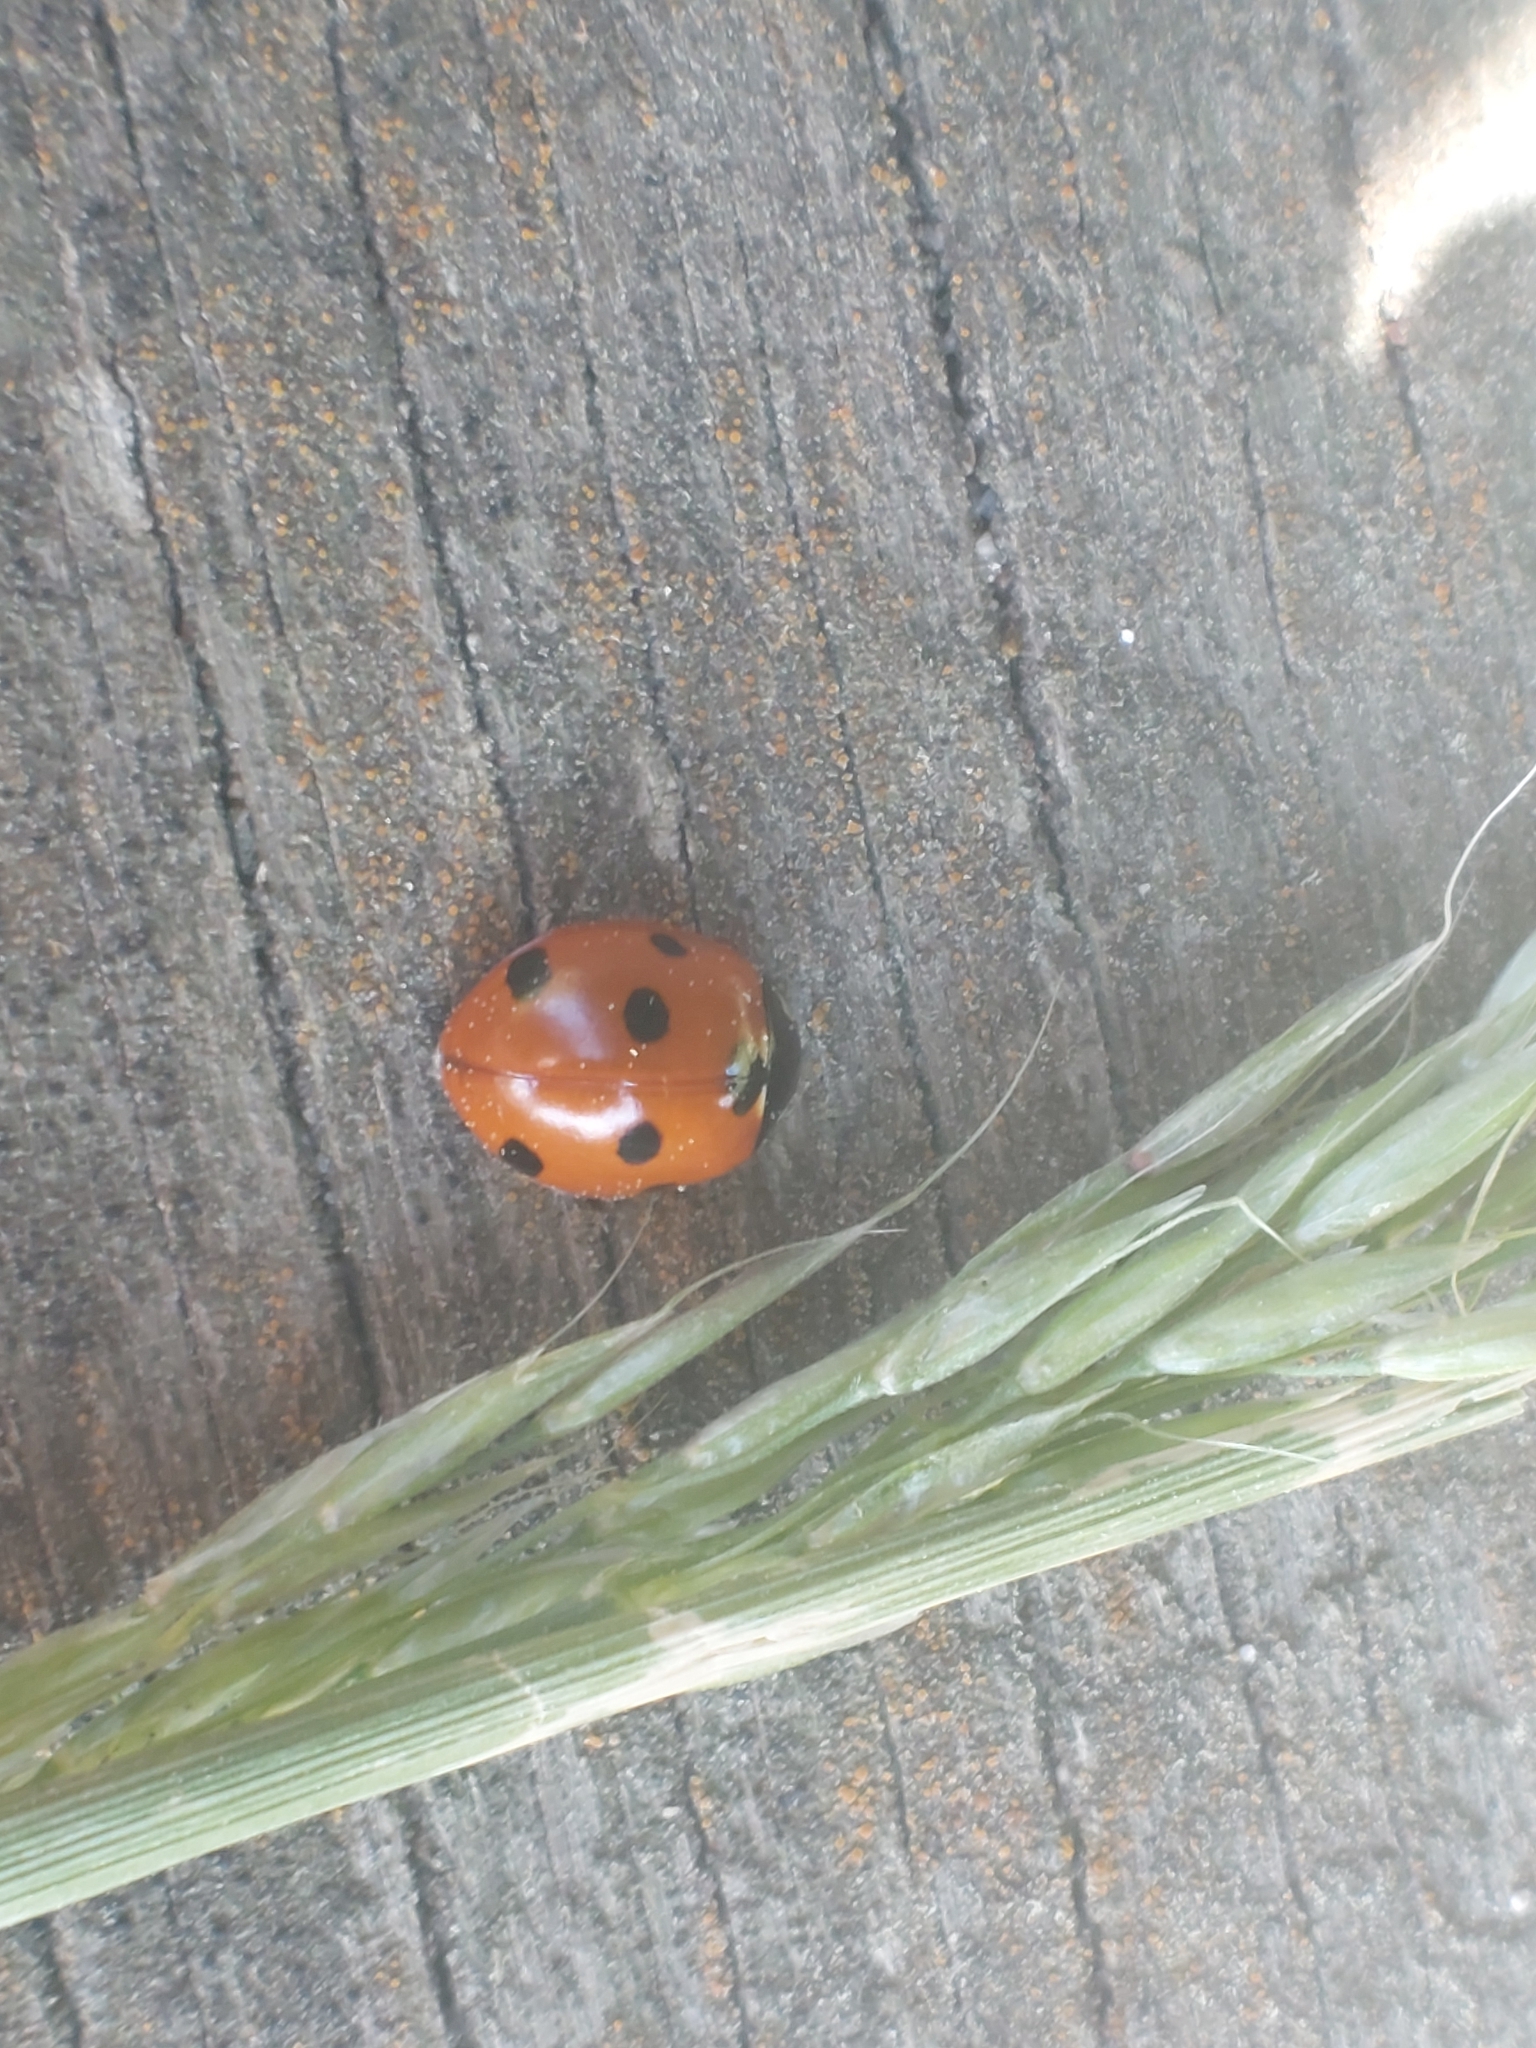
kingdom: Animalia
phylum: Arthropoda
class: Insecta
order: Coleoptera
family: Coccinellidae
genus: Coccinella
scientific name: Coccinella septempunctata
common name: Sevenspotted lady beetle
